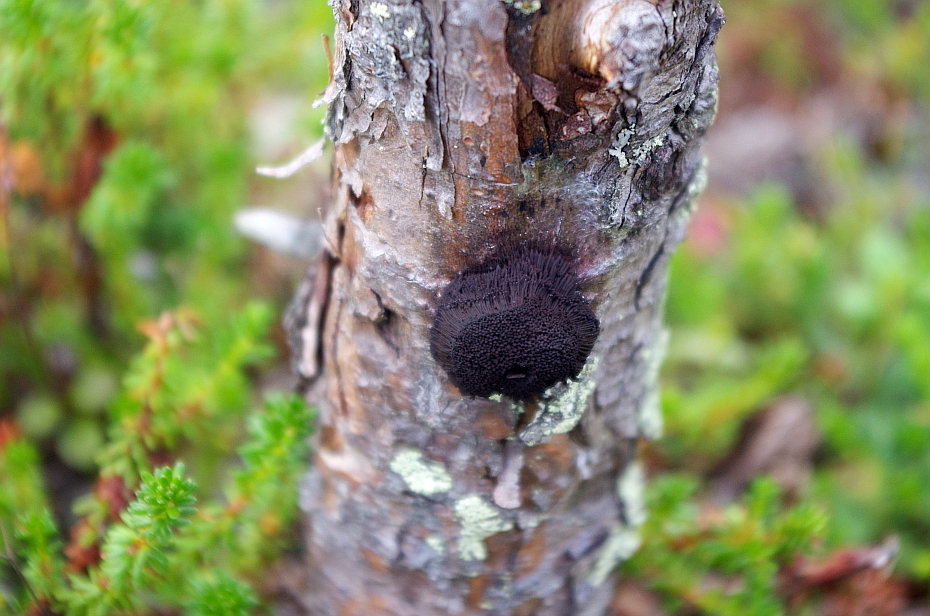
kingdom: Protozoa
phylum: Mycetozoa
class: Myxomycetes
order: Stemonitidales
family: Stemonitidaceae
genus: Symphytocarpus
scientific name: Symphytocarpus
